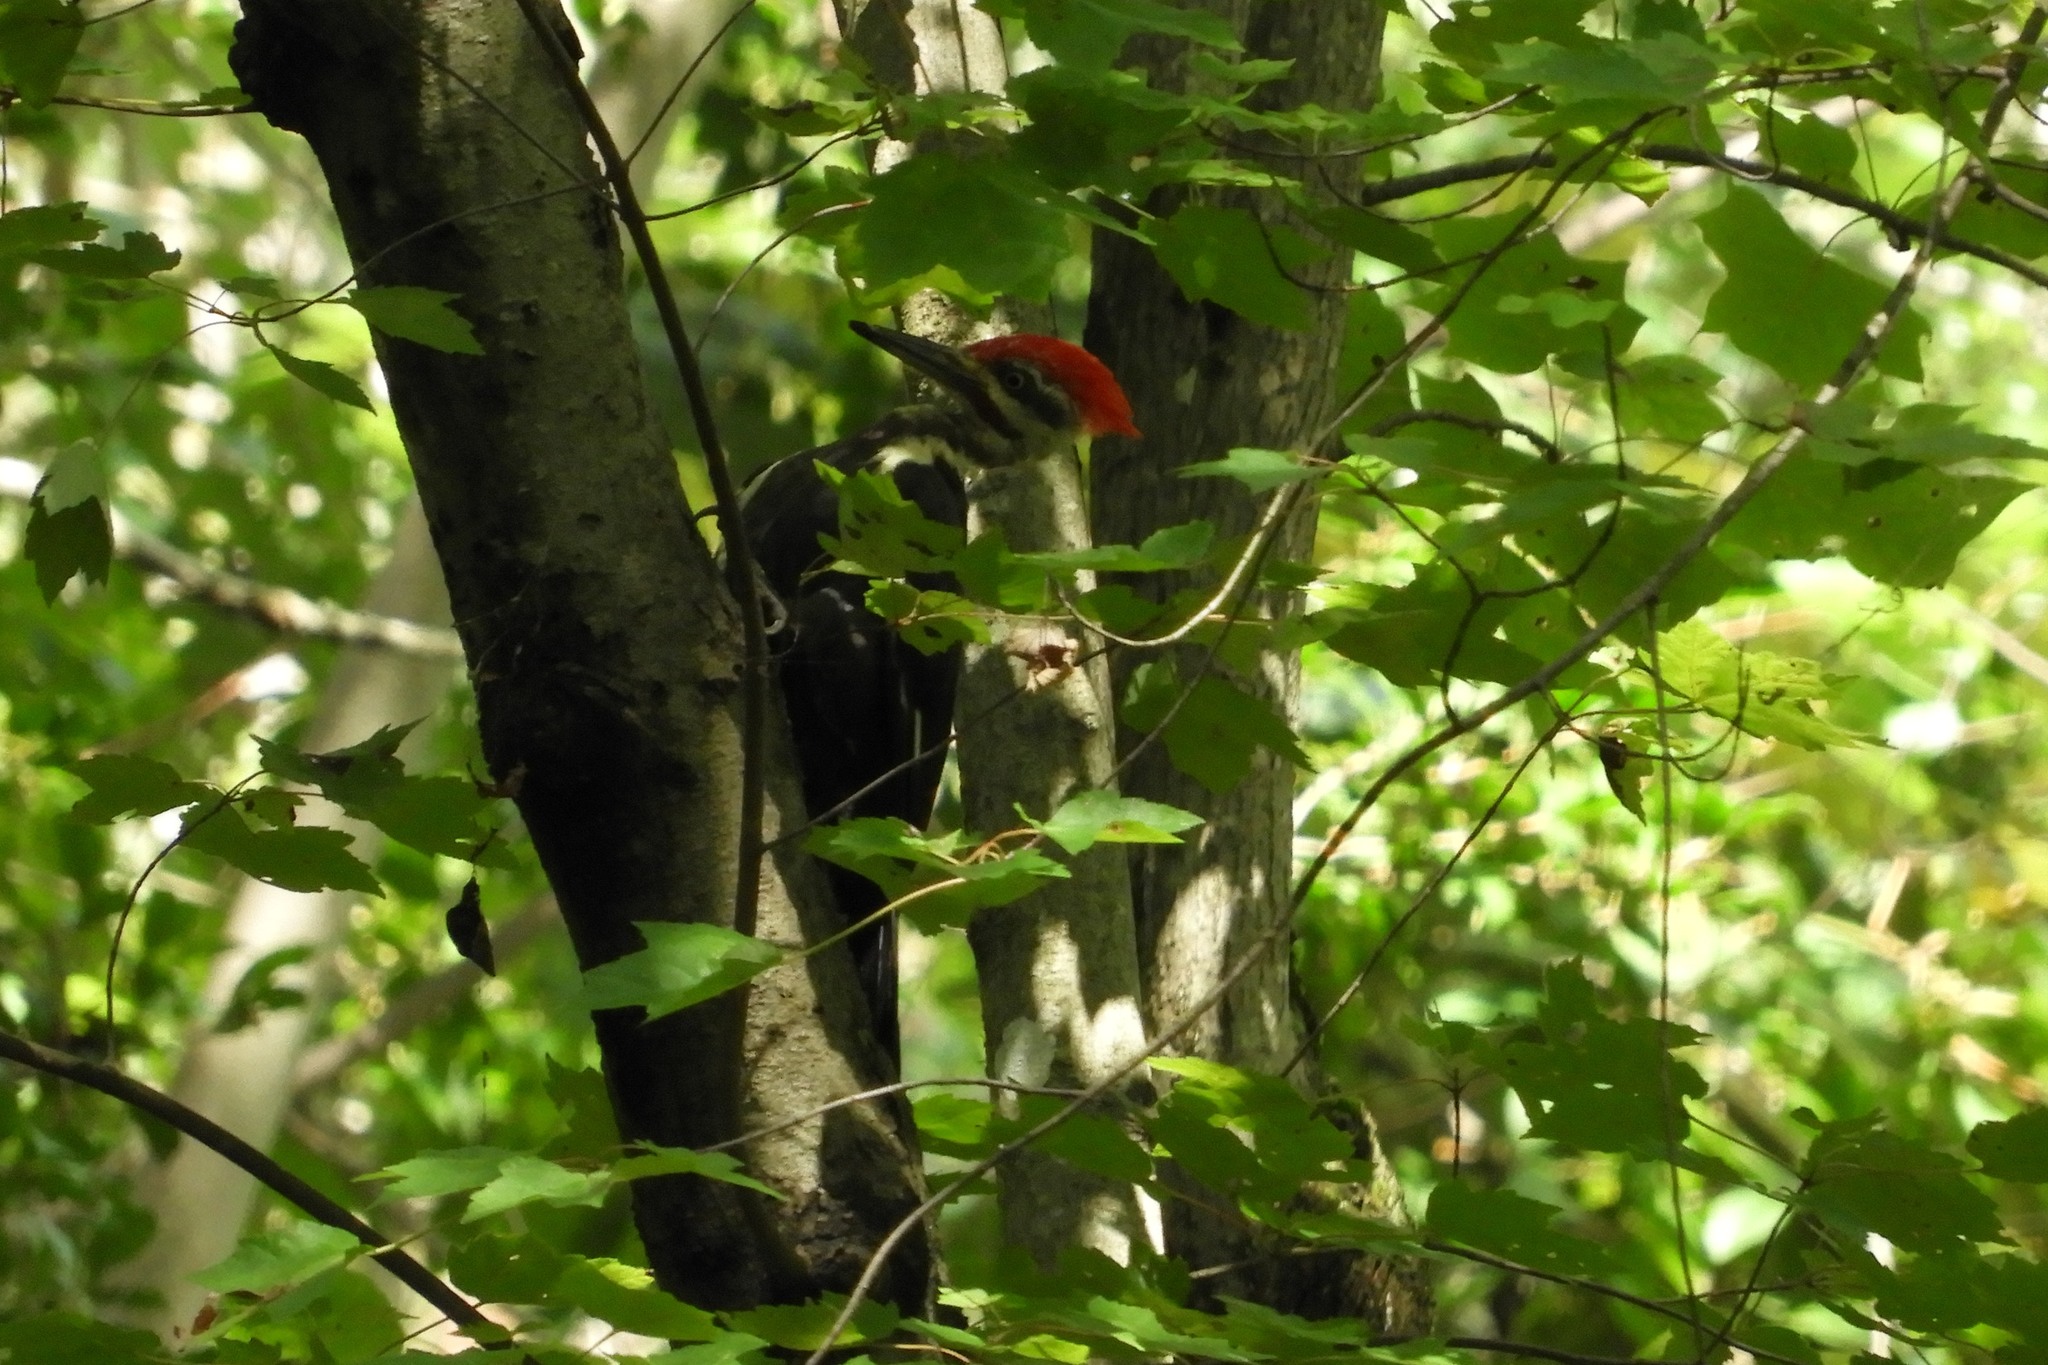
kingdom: Animalia
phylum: Chordata
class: Aves
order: Piciformes
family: Picidae
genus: Dryocopus
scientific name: Dryocopus pileatus
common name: Pileated woodpecker
